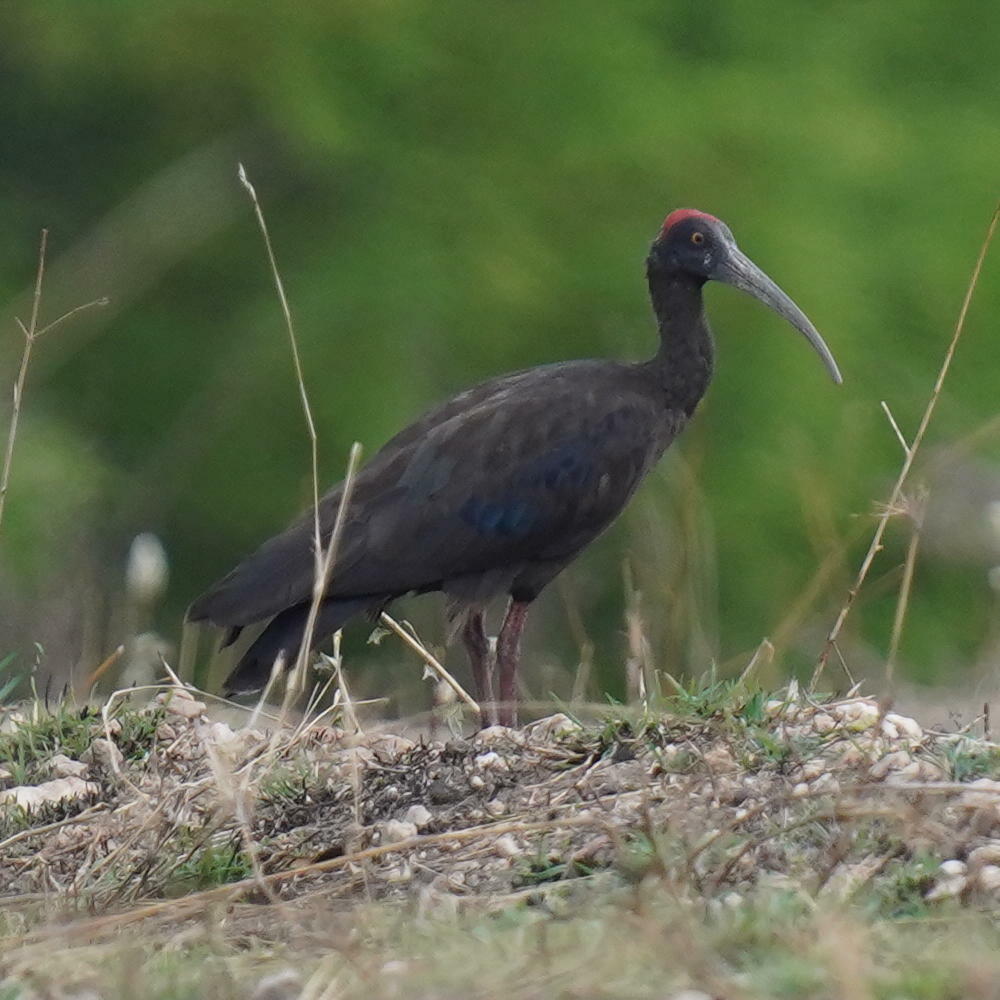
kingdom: Animalia
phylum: Chordata
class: Aves
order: Pelecaniformes
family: Threskiornithidae
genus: Pseudibis
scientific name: Pseudibis papillosa
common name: Red-naped ibis
